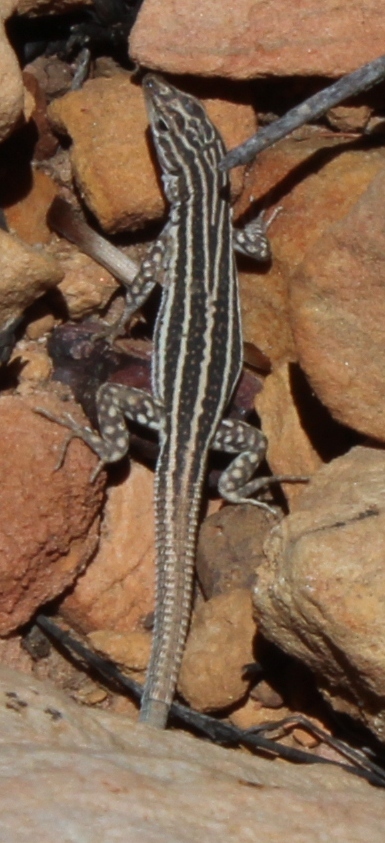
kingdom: Animalia
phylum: Chordata
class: Squamata
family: Lacertidae
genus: Pedioplanis
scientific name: Pedioplanis burchelli
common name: Burchell's sand lizard
